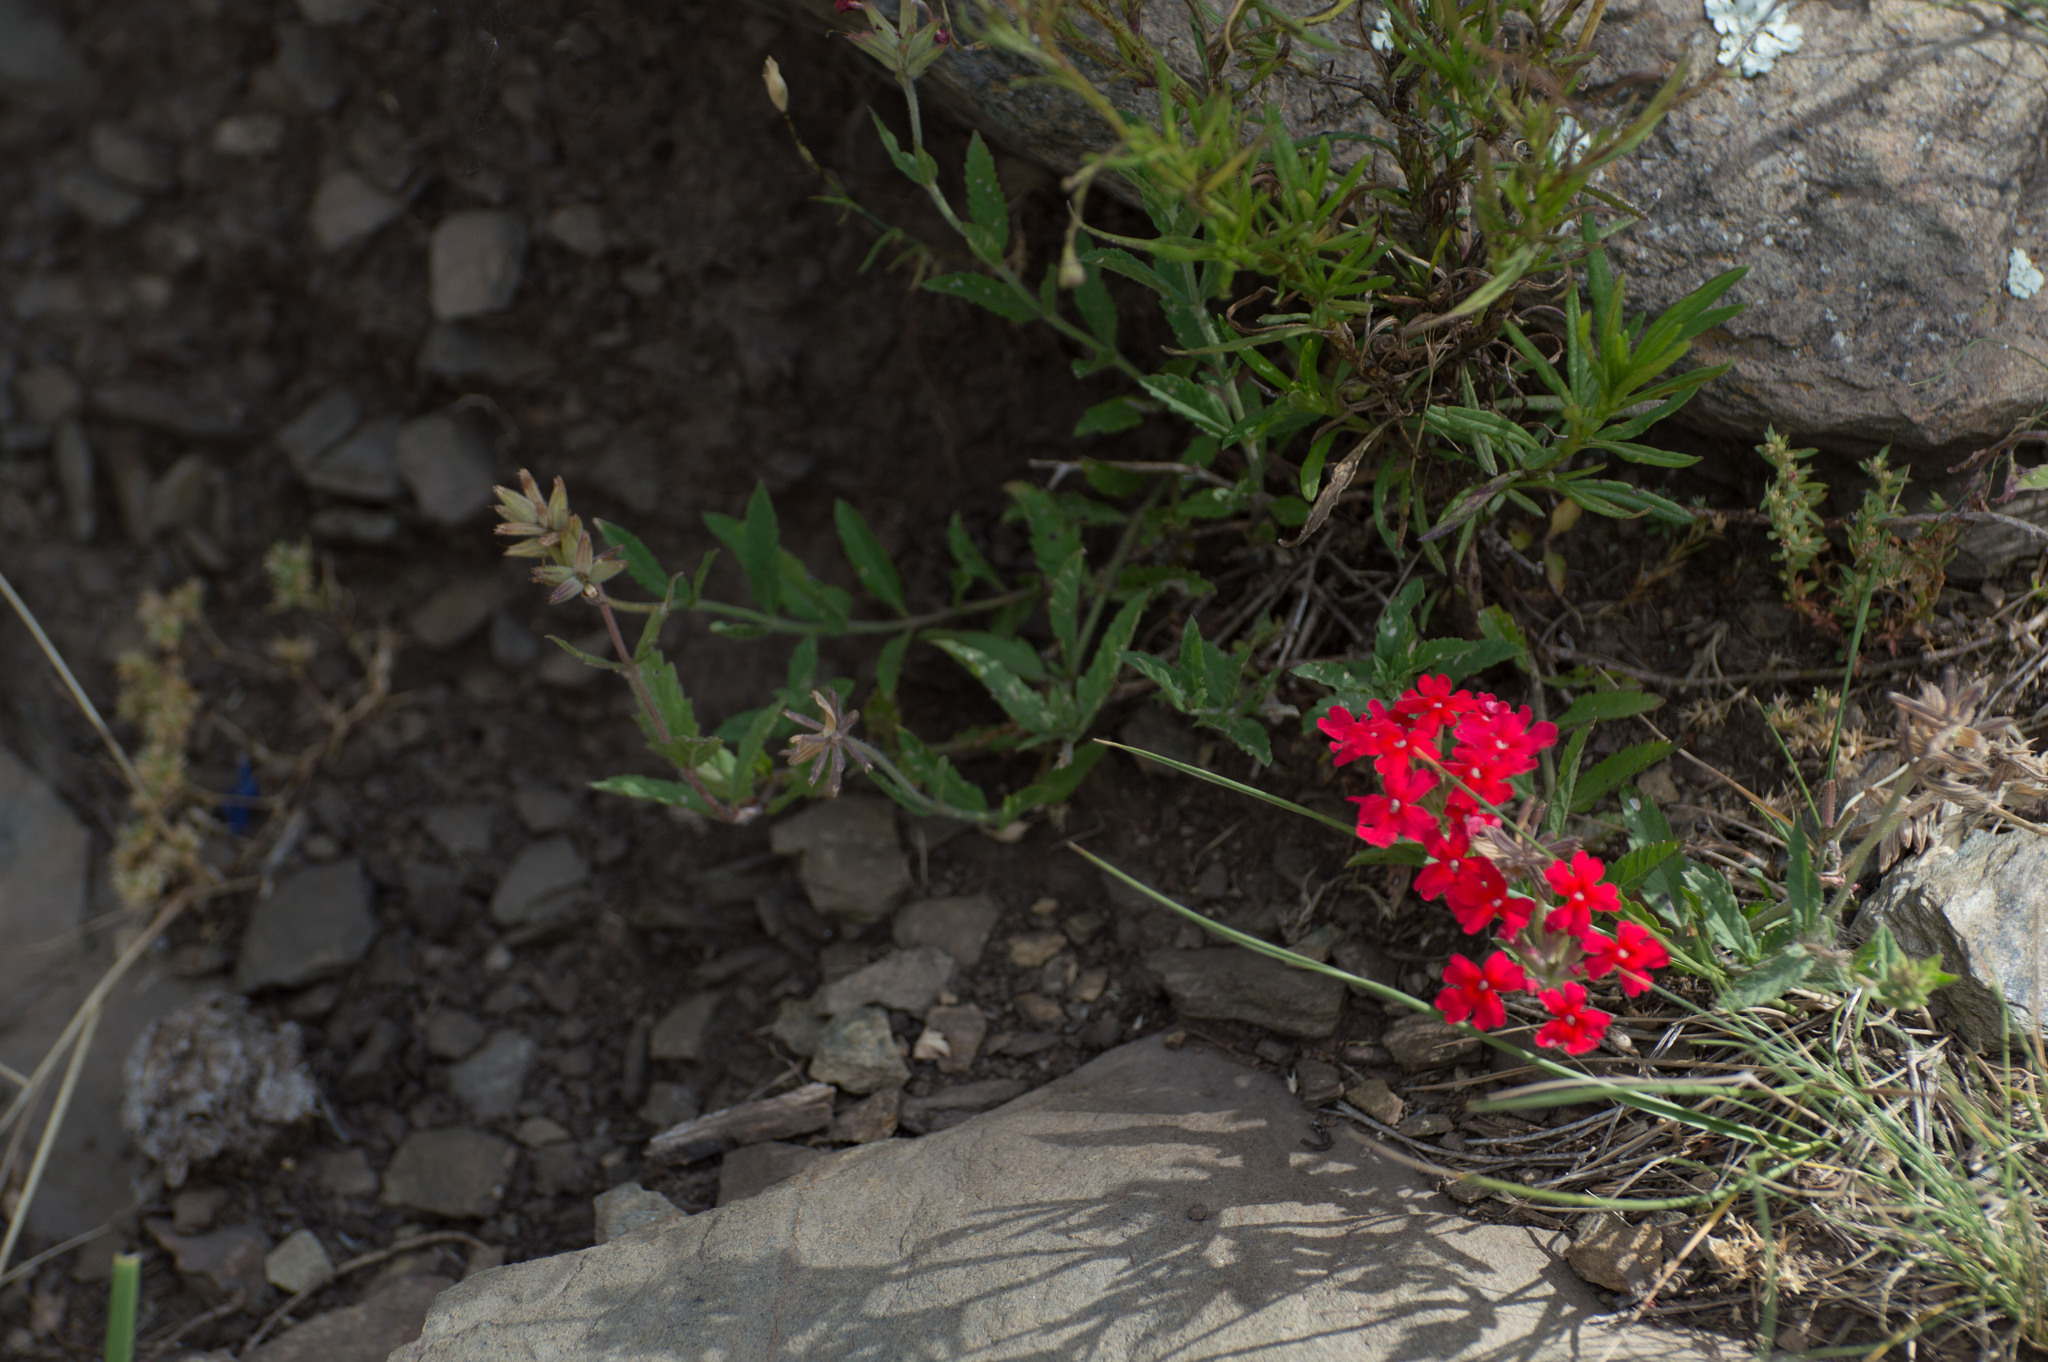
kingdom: Plantae
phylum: Tracheophyta
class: Magnoliopsida
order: Lamiales
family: Verbenaceae
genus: Verbena
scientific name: Verbena peruviana
